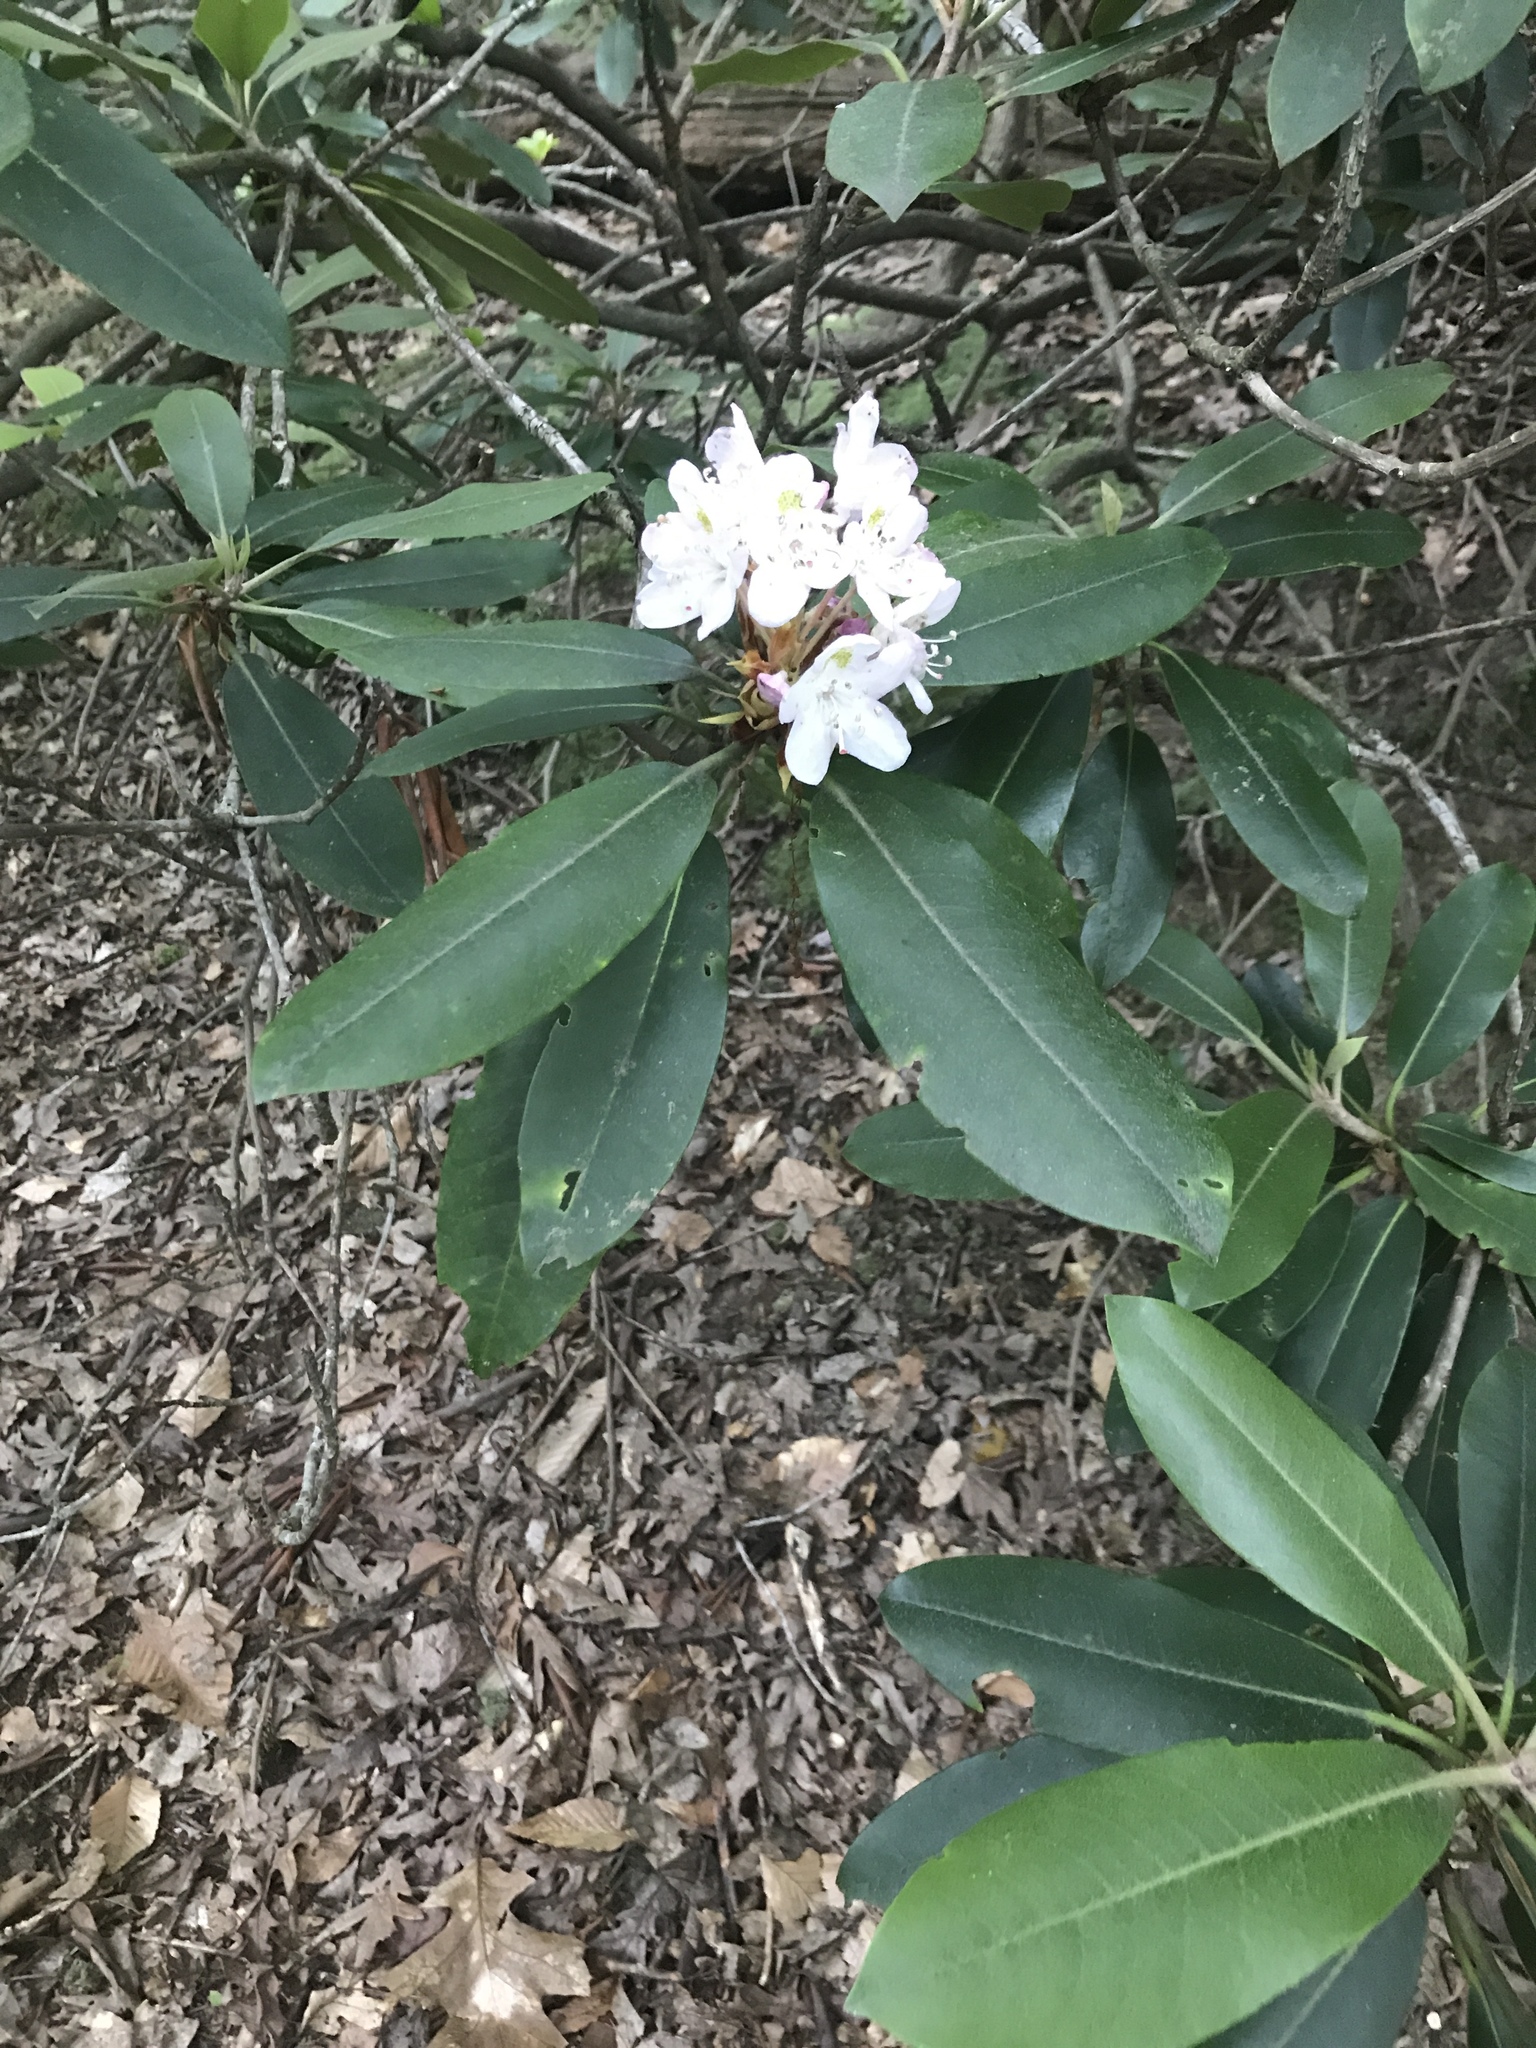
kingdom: Plantae
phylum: Tracheophyta
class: Magnoliopsida
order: Ericales
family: Ericaceae
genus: Rhododendron
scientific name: Rhododendron maximum
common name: Great rhododendron
